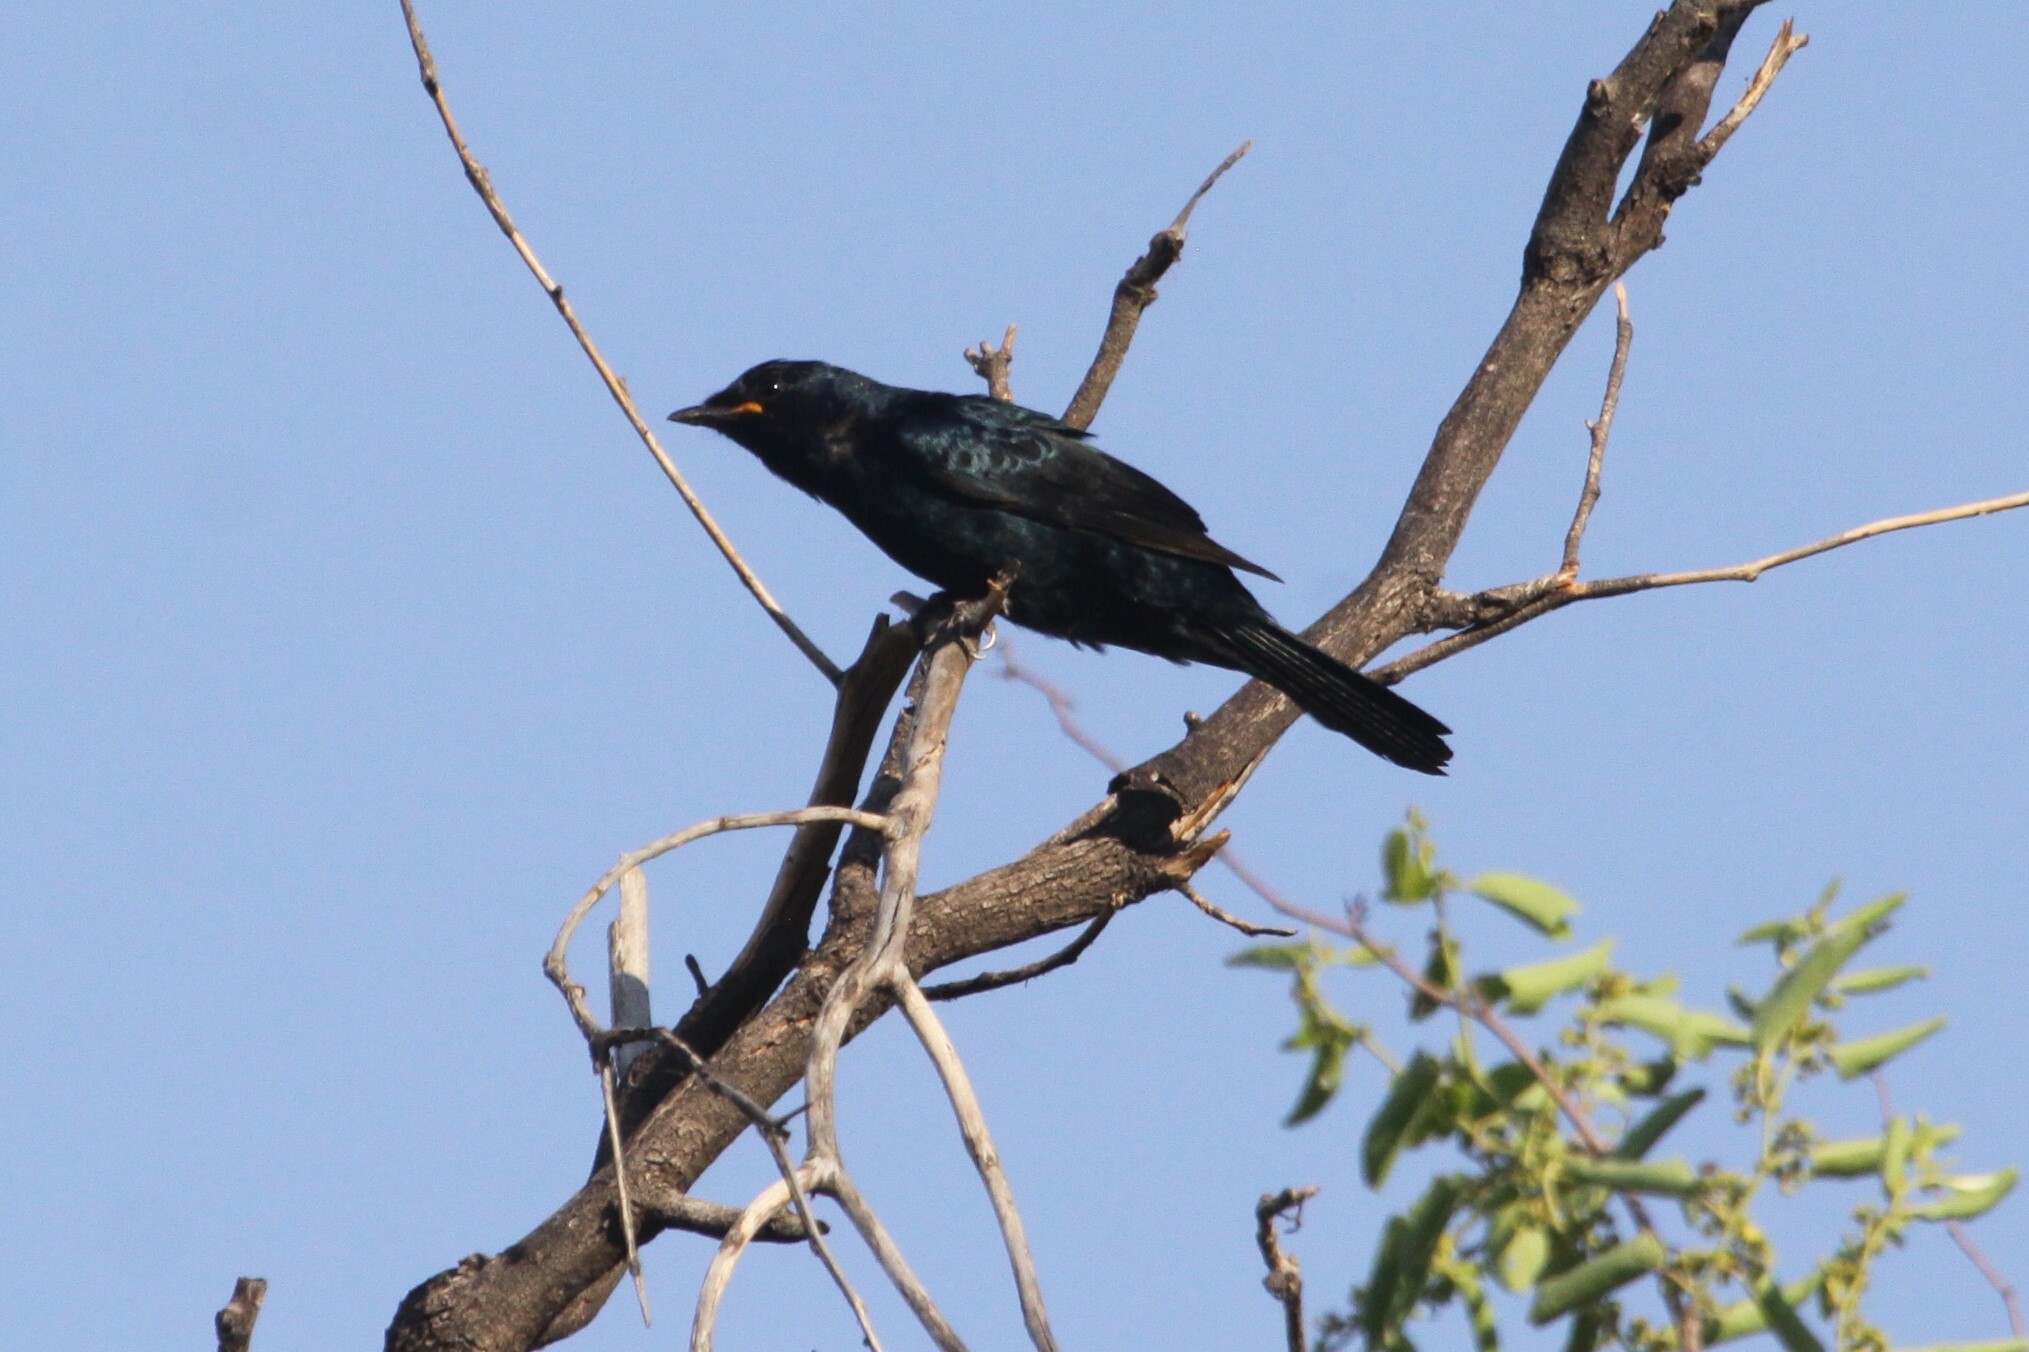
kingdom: Animalia
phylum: Chordata
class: Aves
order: Passeriformes
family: Campephagidae
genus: Campephaga
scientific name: Campephaga flava
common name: Black cuckooshrike
